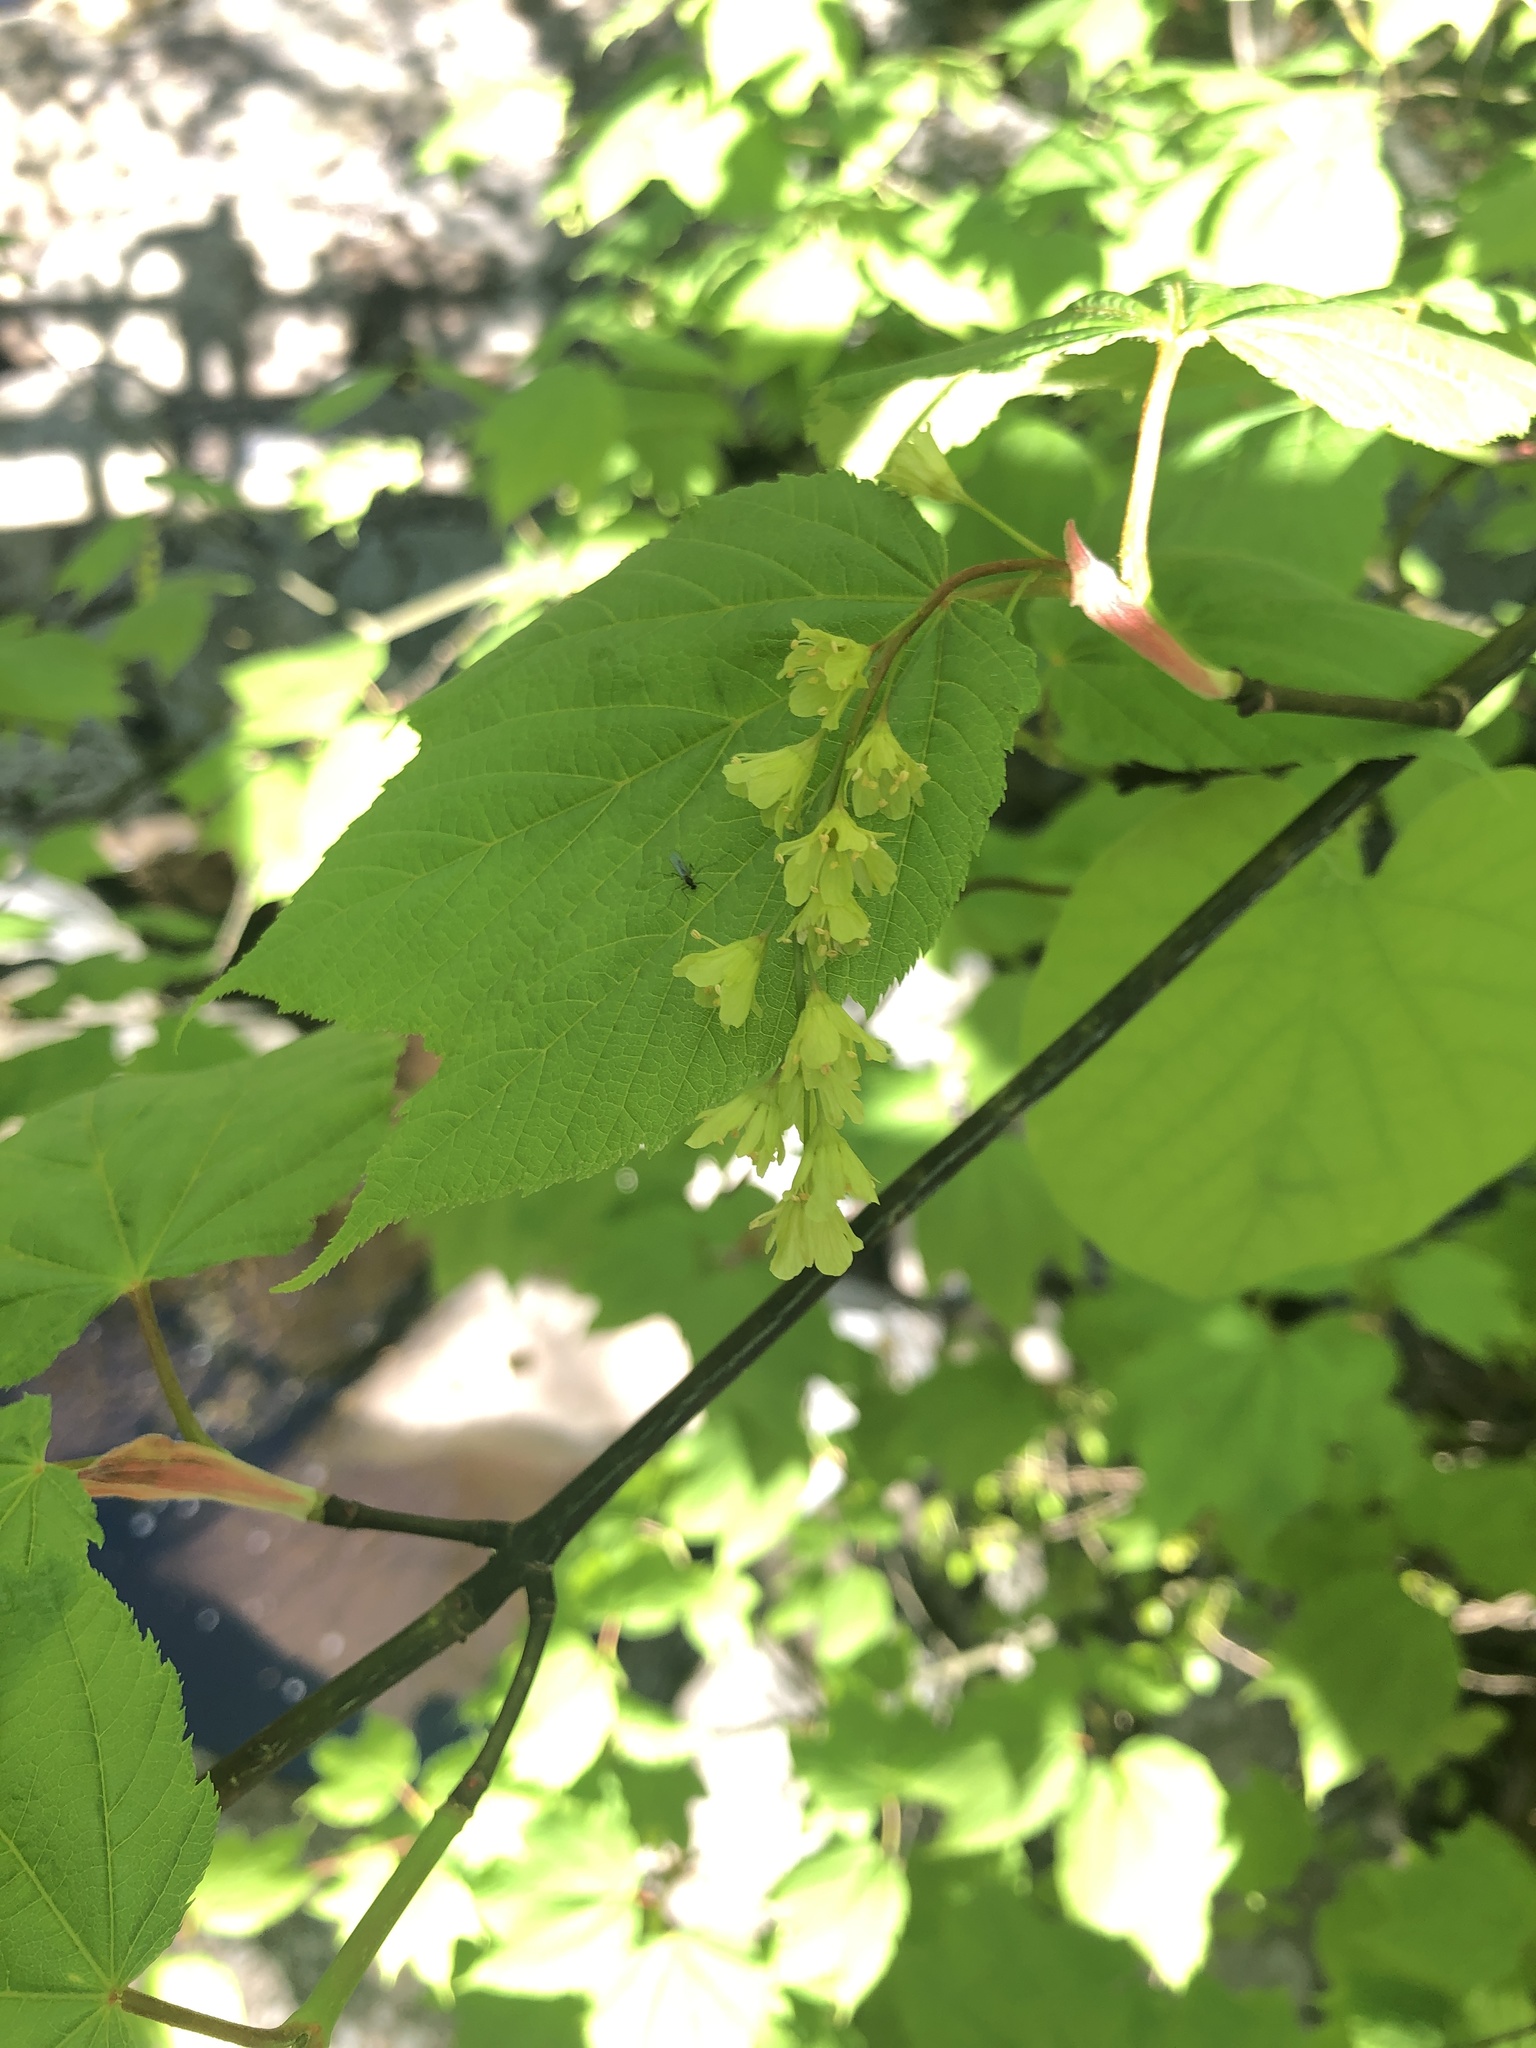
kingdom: Plantae
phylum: Tracheophyta
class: Magnoliopsida
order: Sapindales
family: Sapindaceae
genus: Acer
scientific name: Acer pensylvanicum
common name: Moosewood
